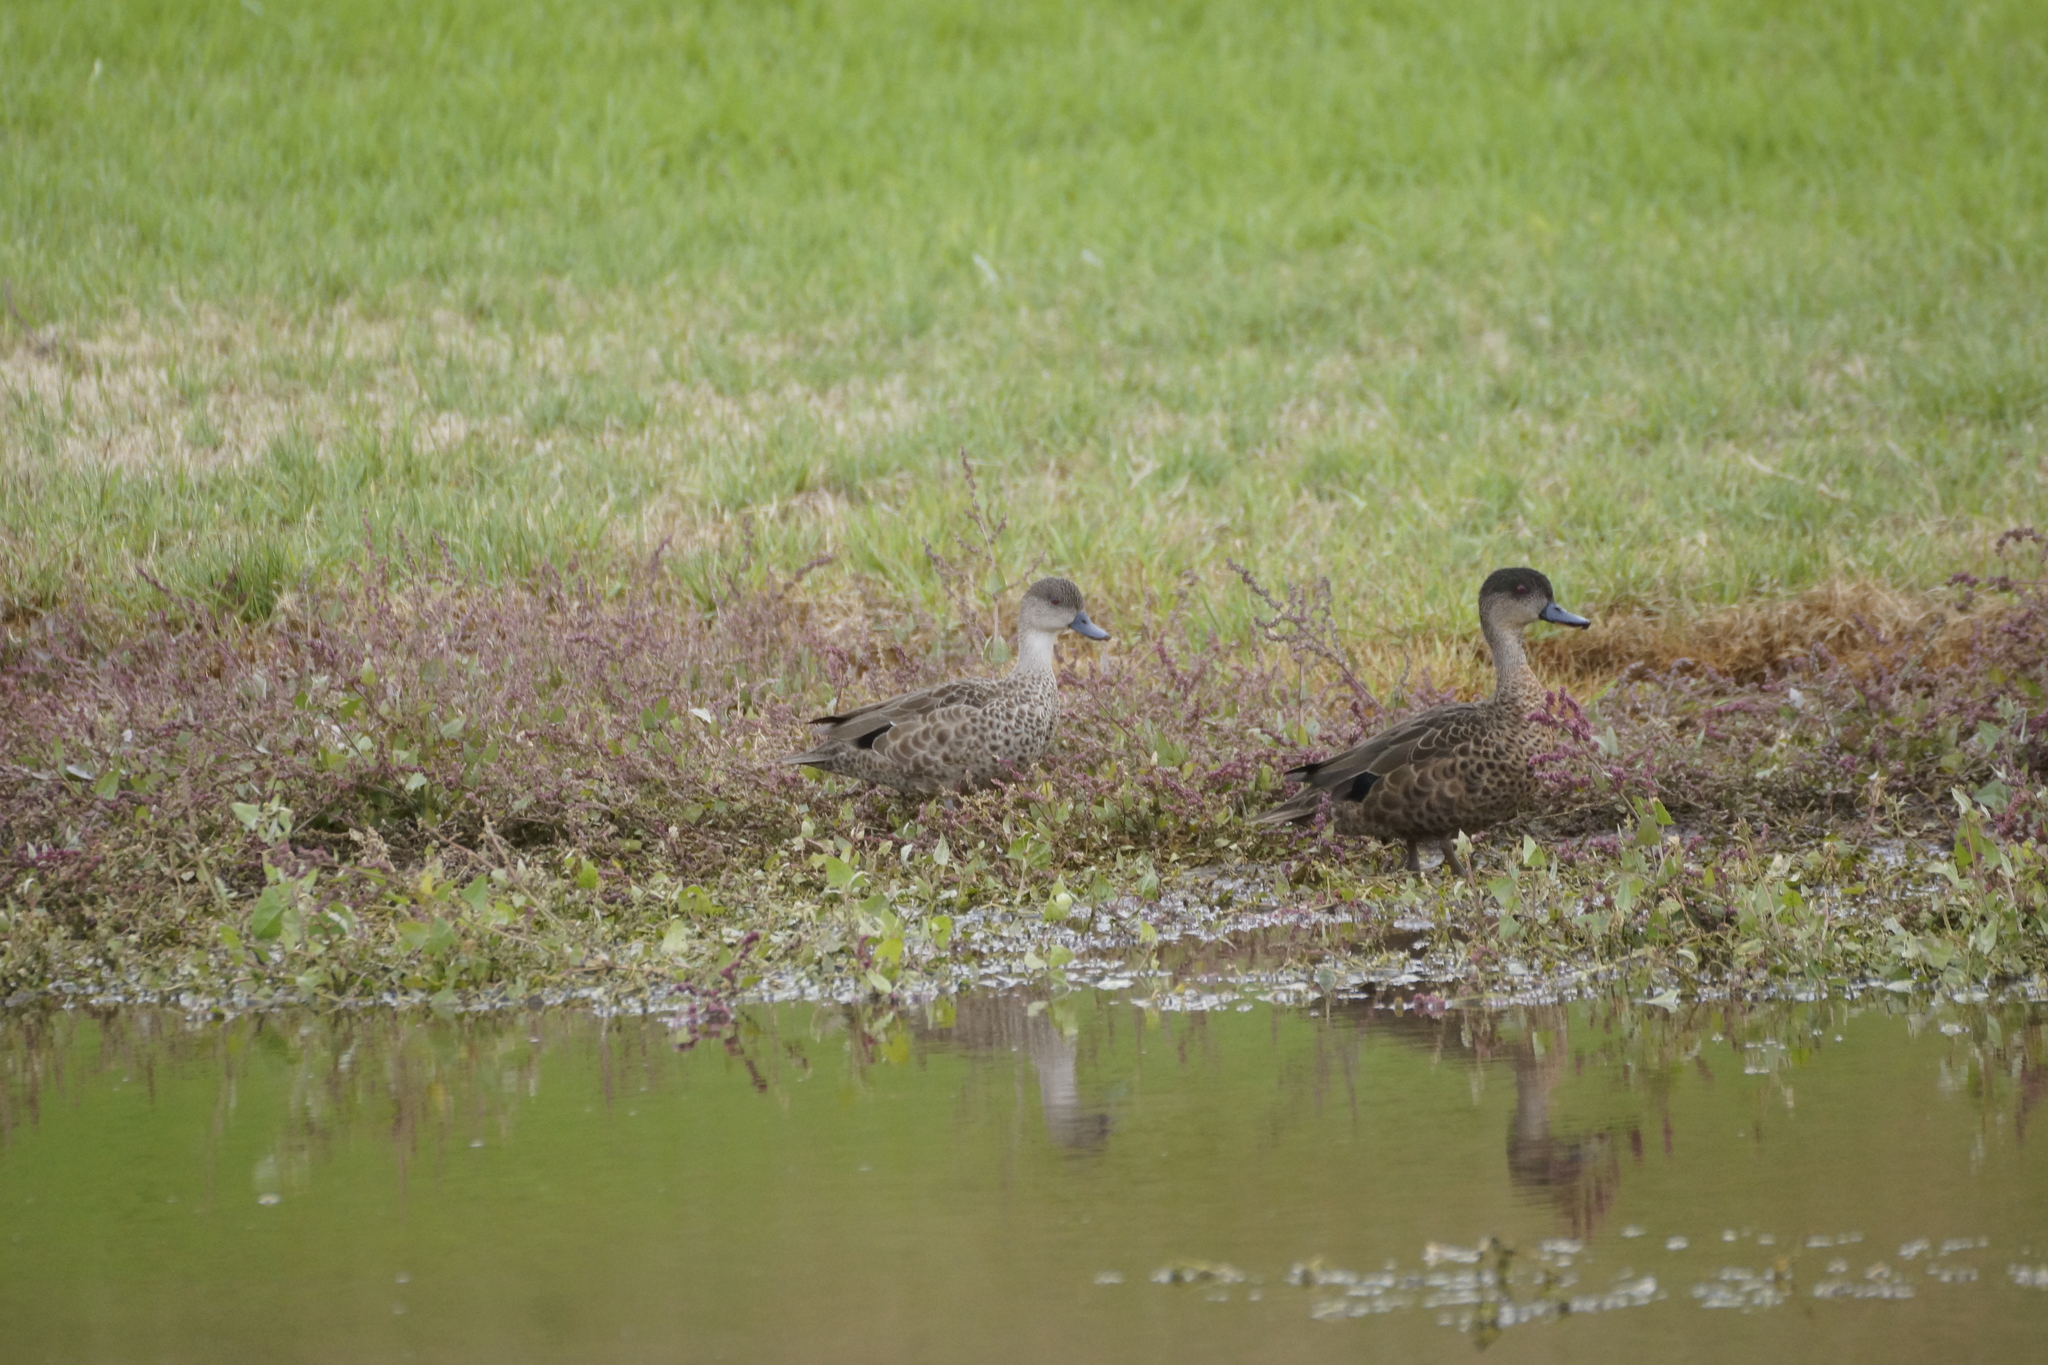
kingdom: Animalia
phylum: Chordata
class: Aves
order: Anseriformes
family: Anatidae
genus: Anas
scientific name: Anas gracilis
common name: Grey teal
